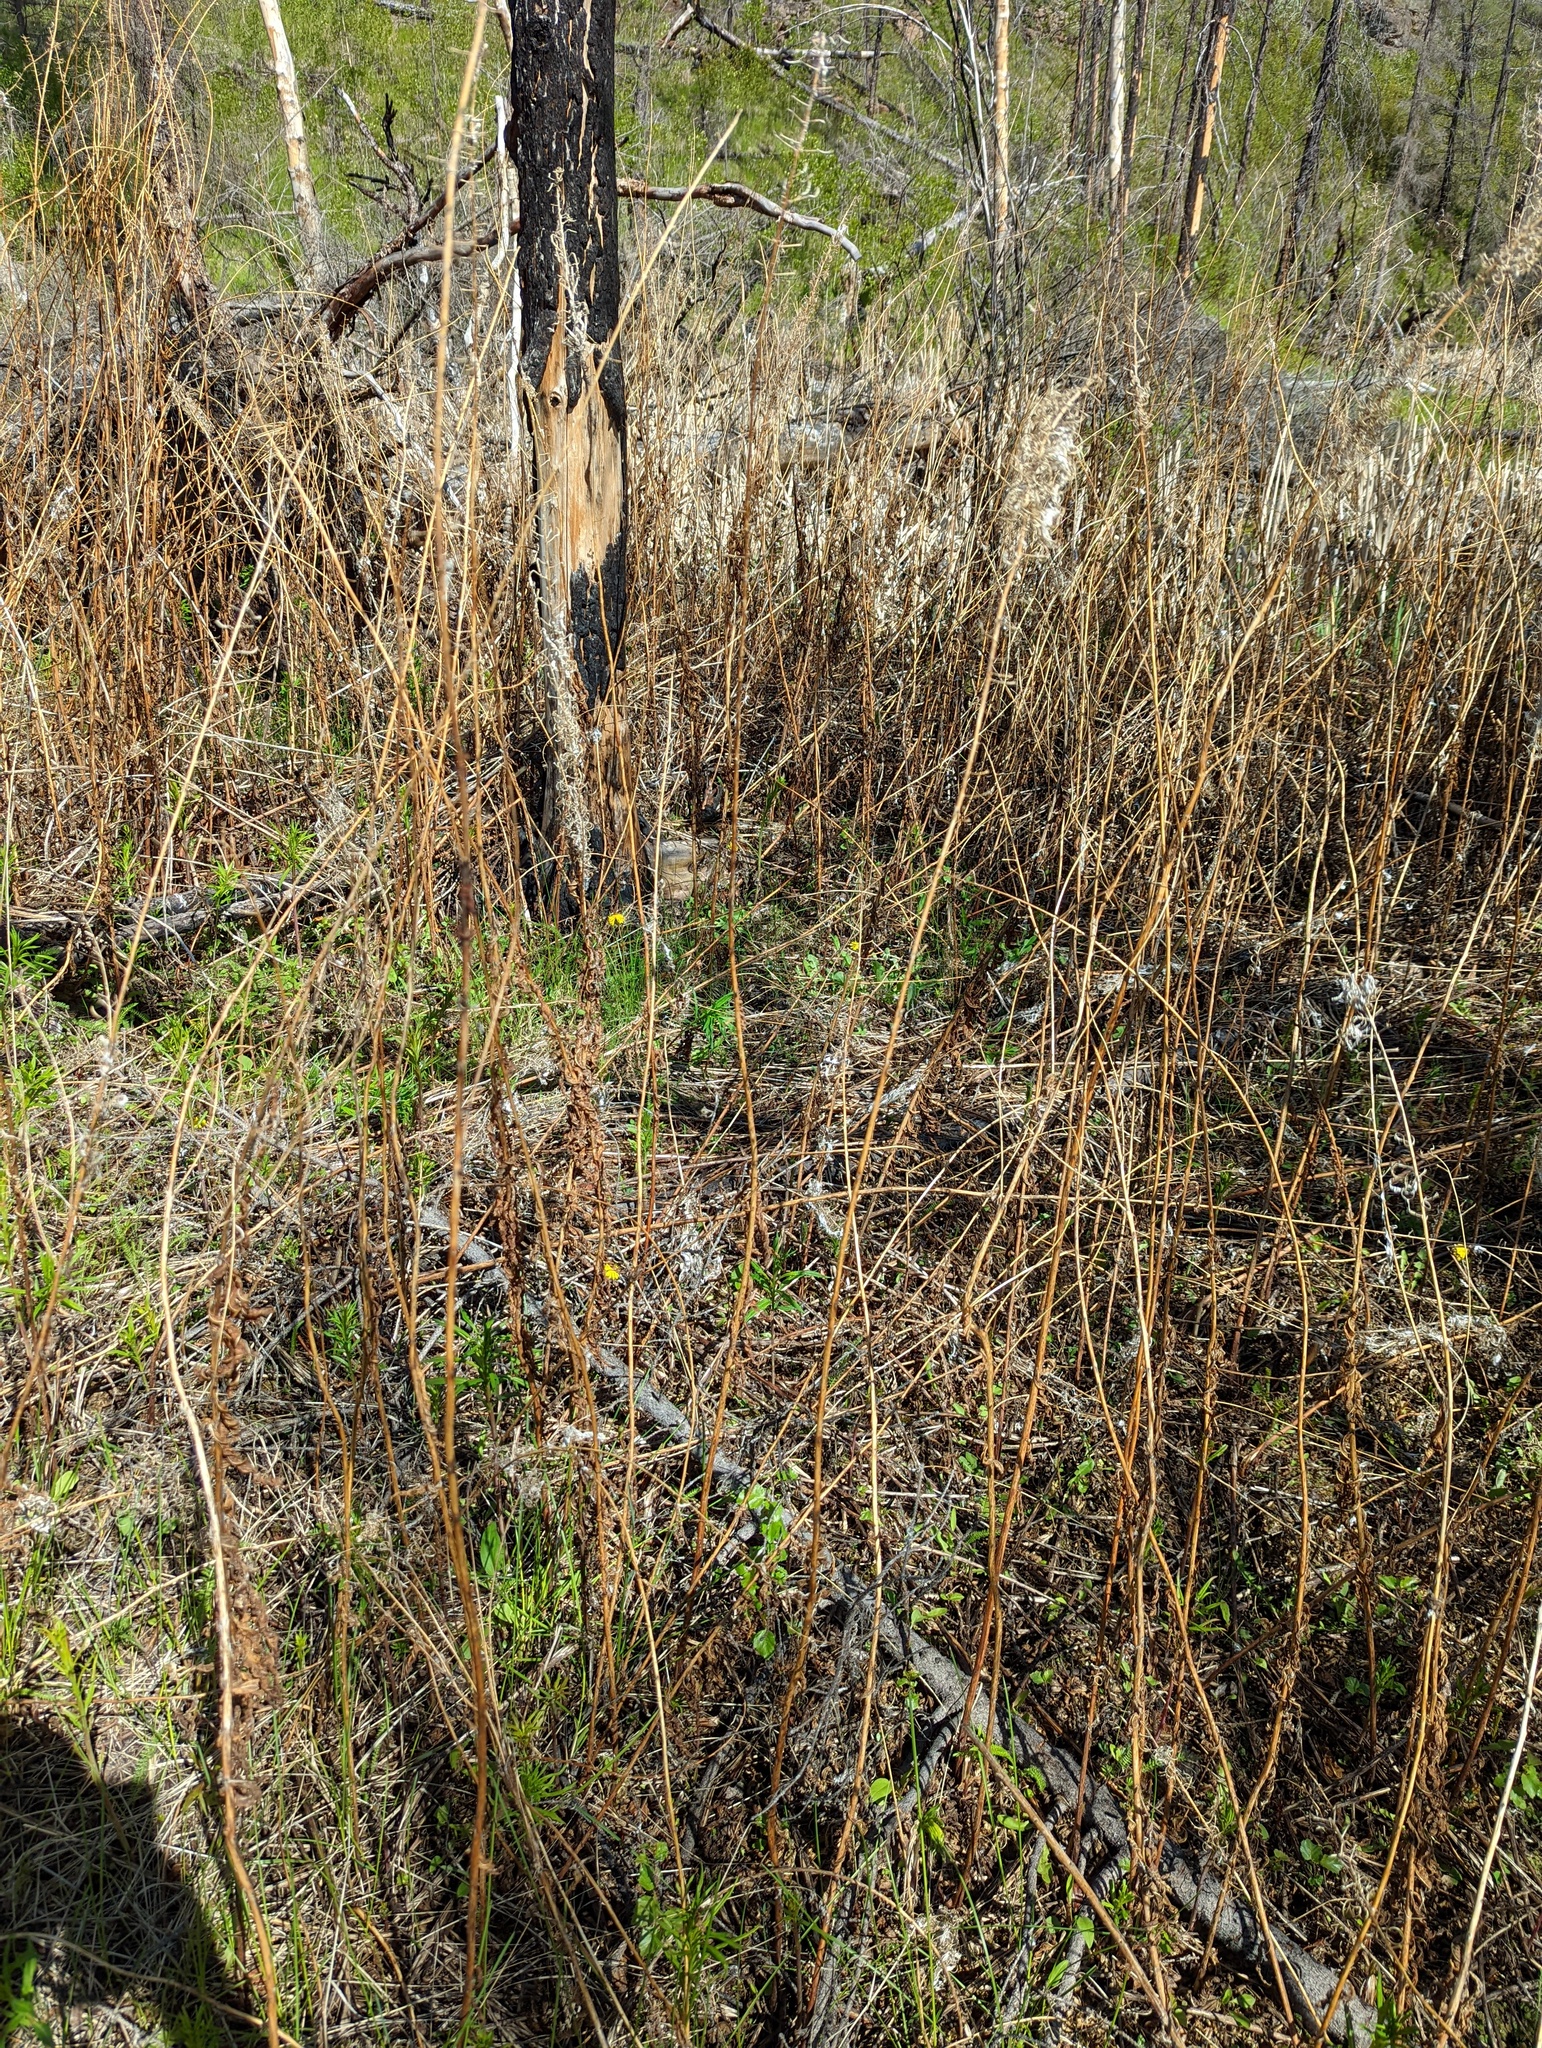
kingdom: Plantae
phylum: Tracheophyta
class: Magnoliopsida
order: Myrtales
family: Onagraceae
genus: Chamaenerion
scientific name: Chamaenerion angustifolium
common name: Fireweed
